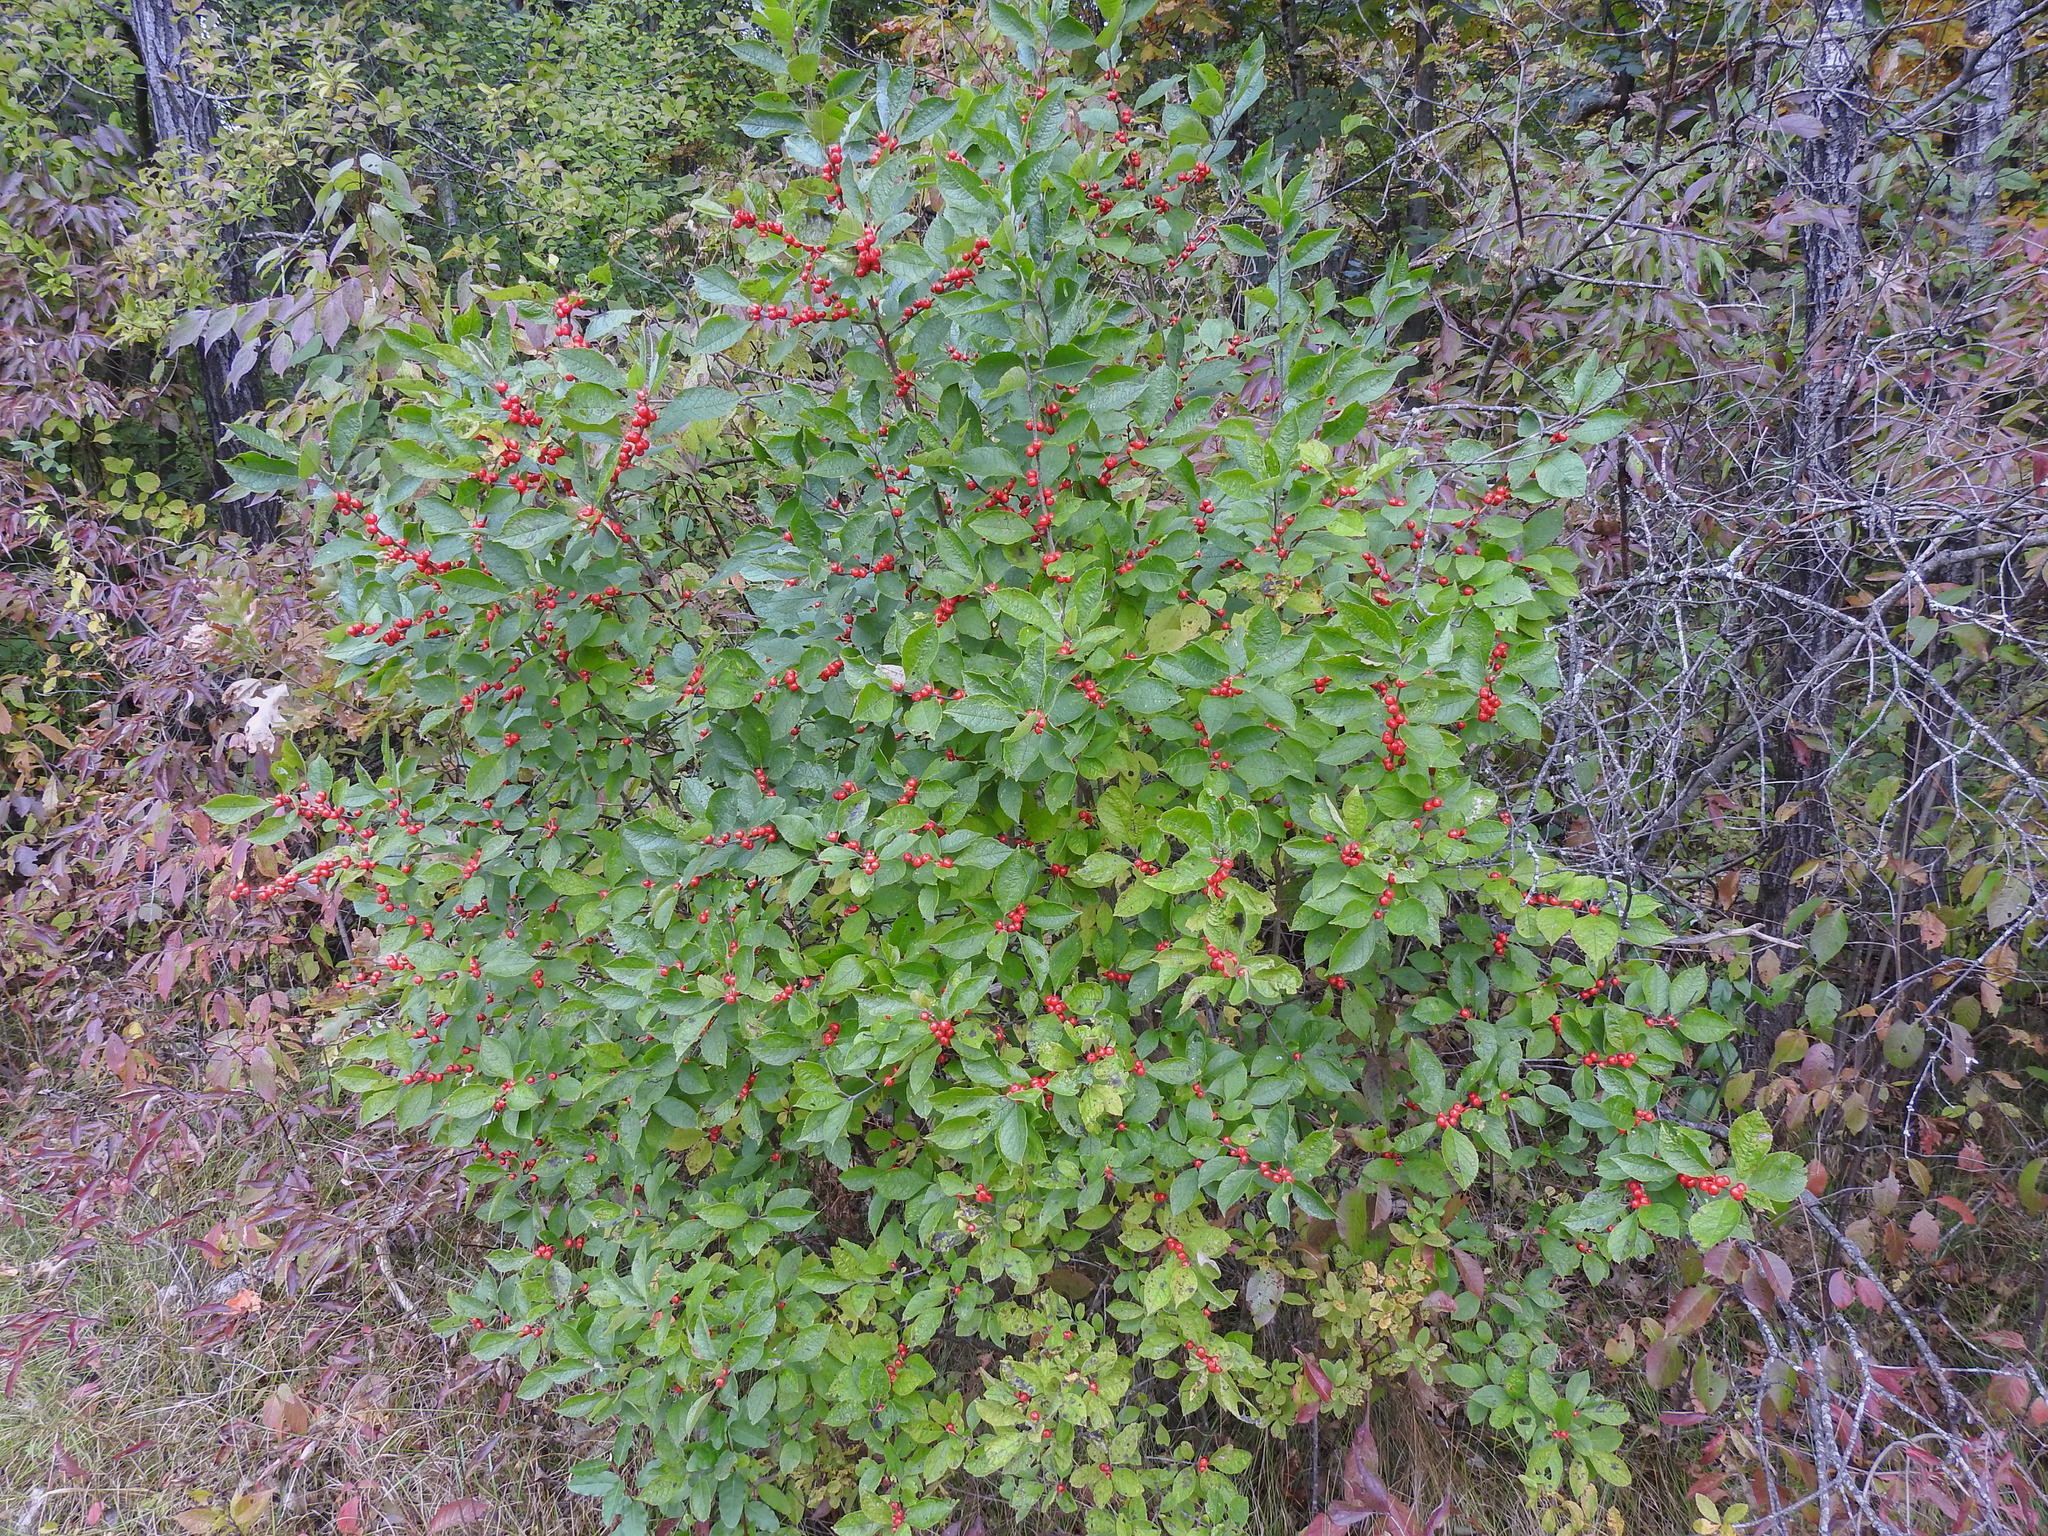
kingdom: Plantae
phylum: Tracheophyta
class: Magnoliopsida
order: Aquifoliales
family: Aquifoliaceae
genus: Ilex
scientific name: Ilex verticillata
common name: Virginia winterberry
